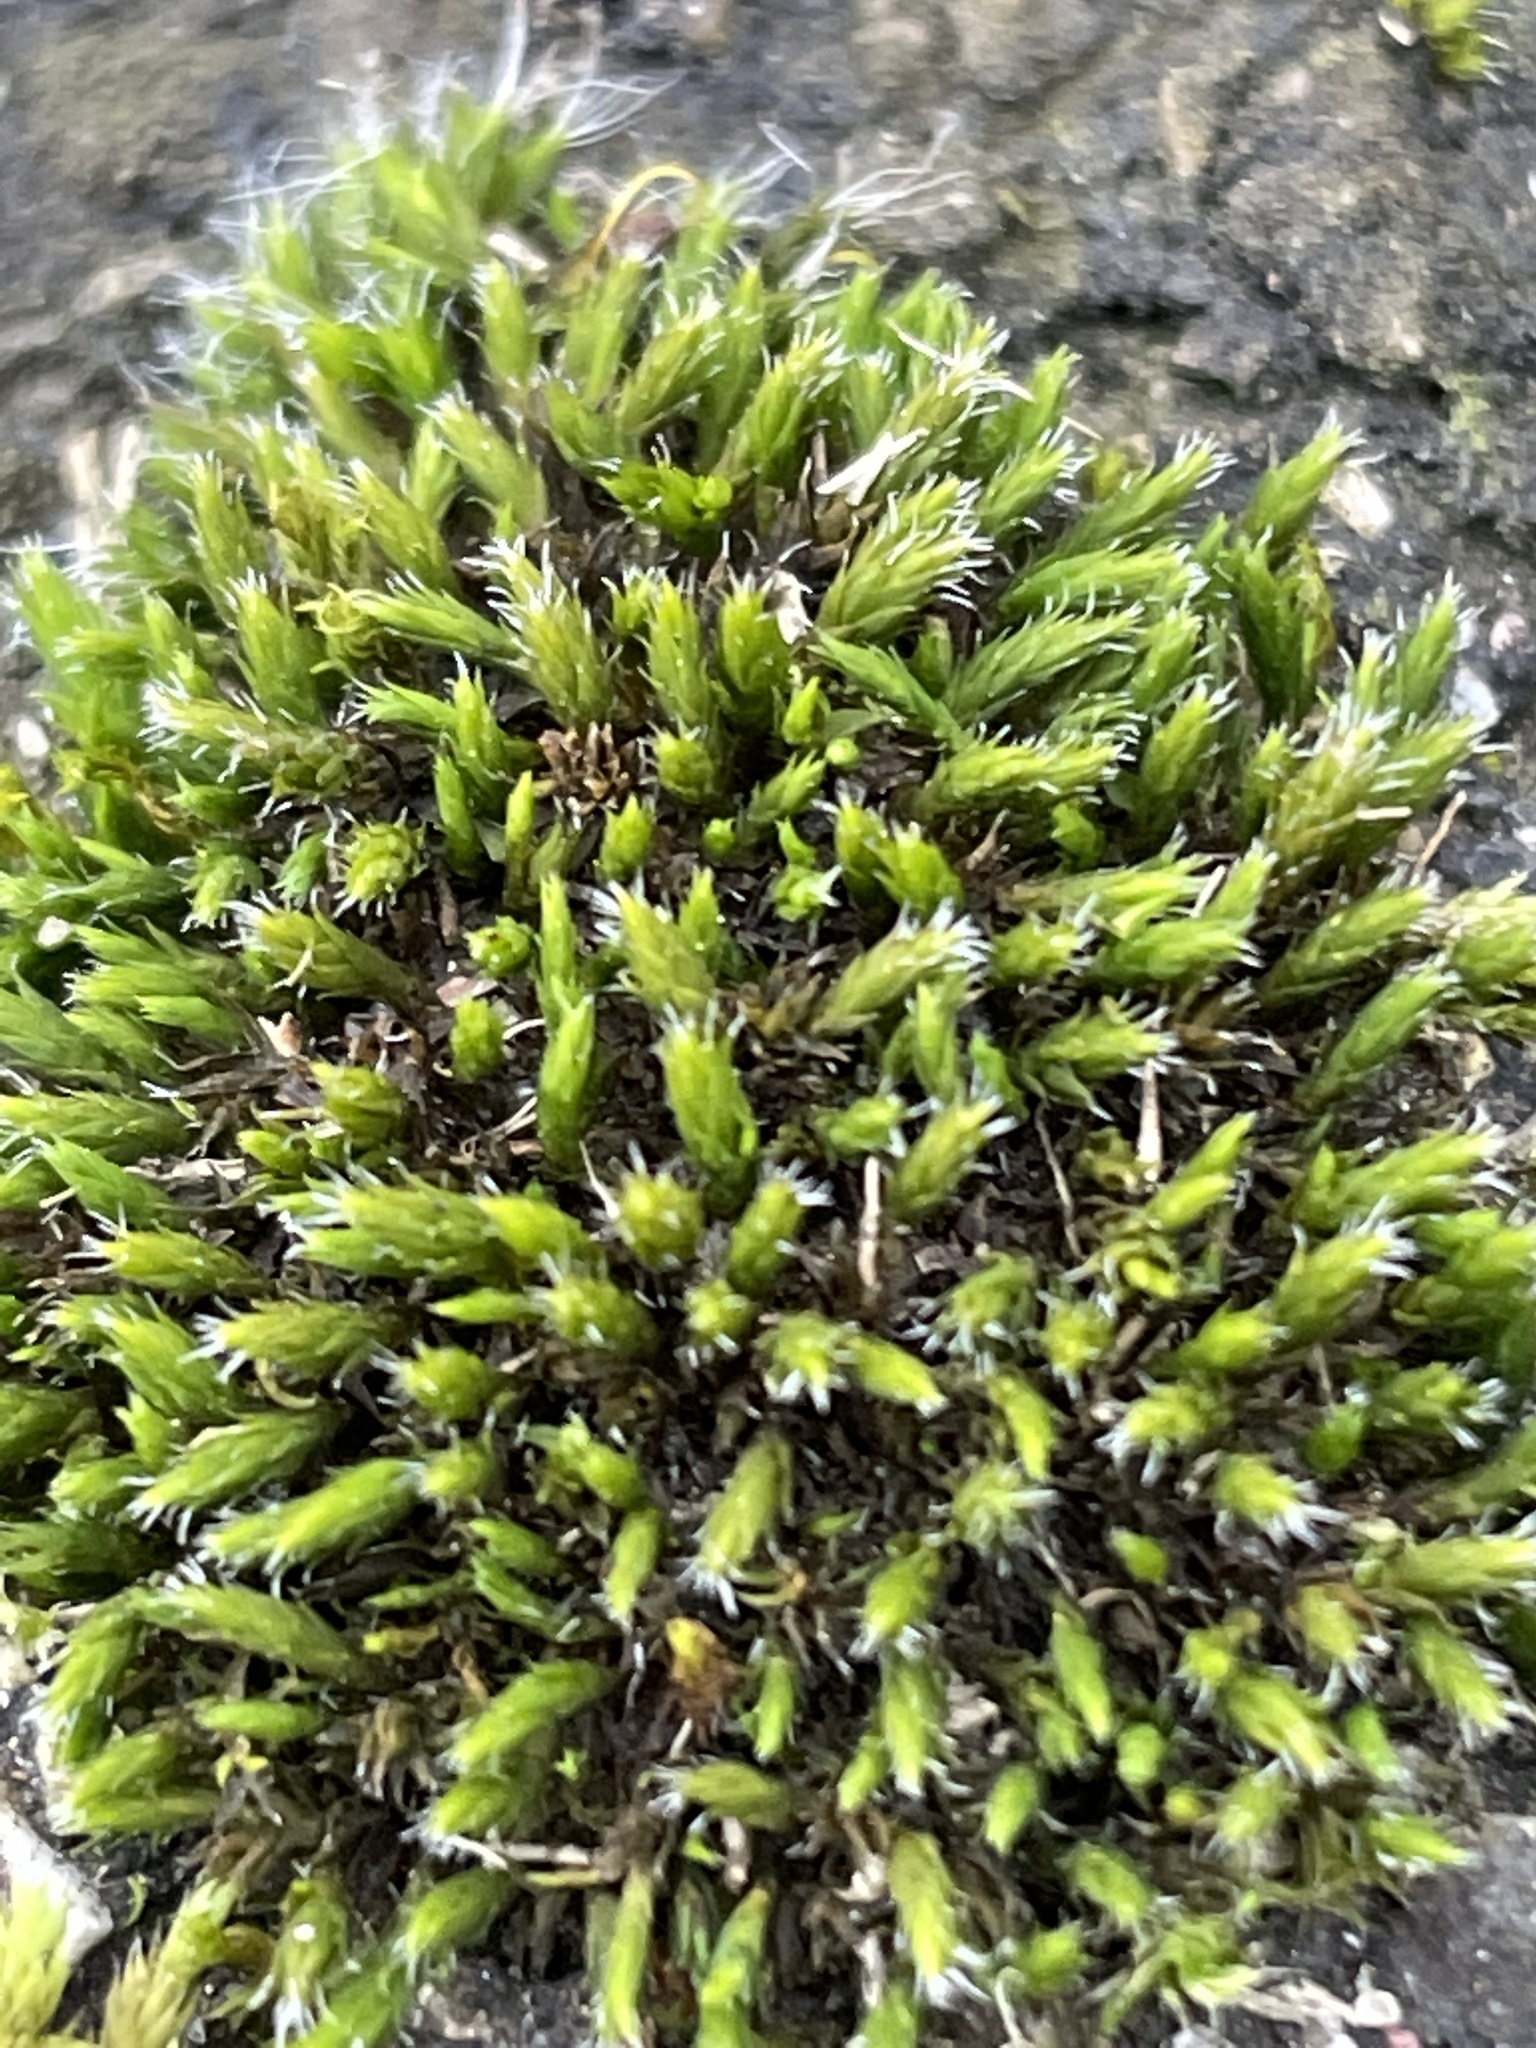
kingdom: Plantae
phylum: Bryophyta
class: Bryopsida
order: Grimmiales
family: Grimmiaceae
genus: Grimmia
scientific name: Grimmia laevigata
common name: Hoary grimmia
